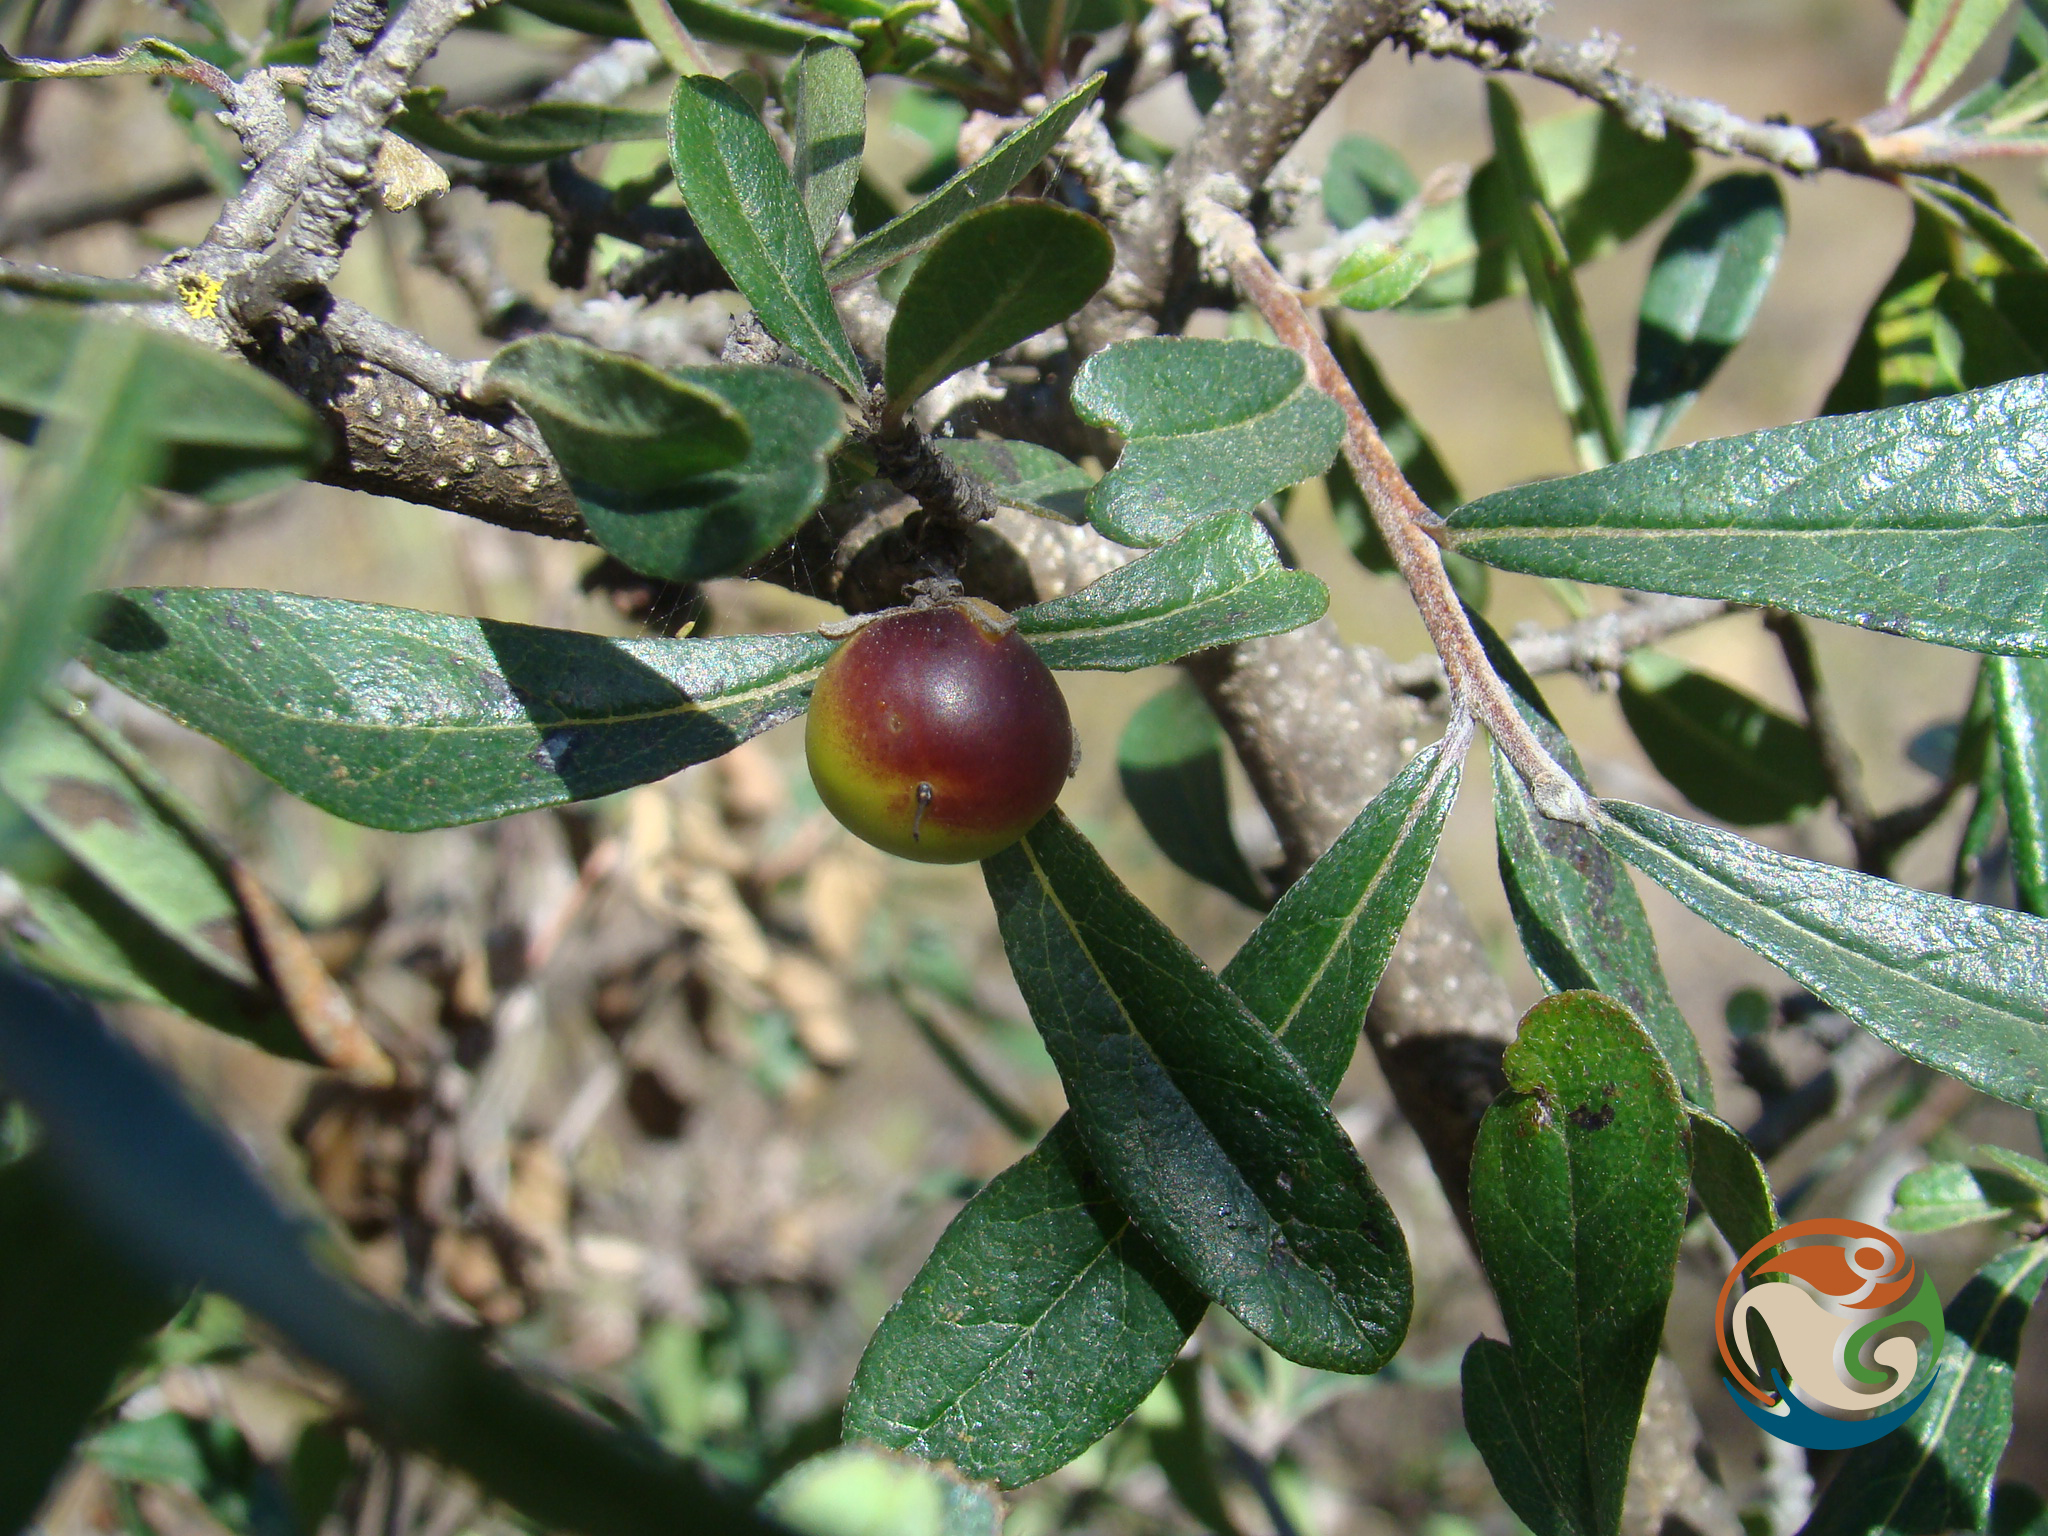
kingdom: Plantae
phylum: Tracheophyta
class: Magnoliopsida
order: Boraginales
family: Ehretiaceae
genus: Bourreria
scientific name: Bourreria spathulata
